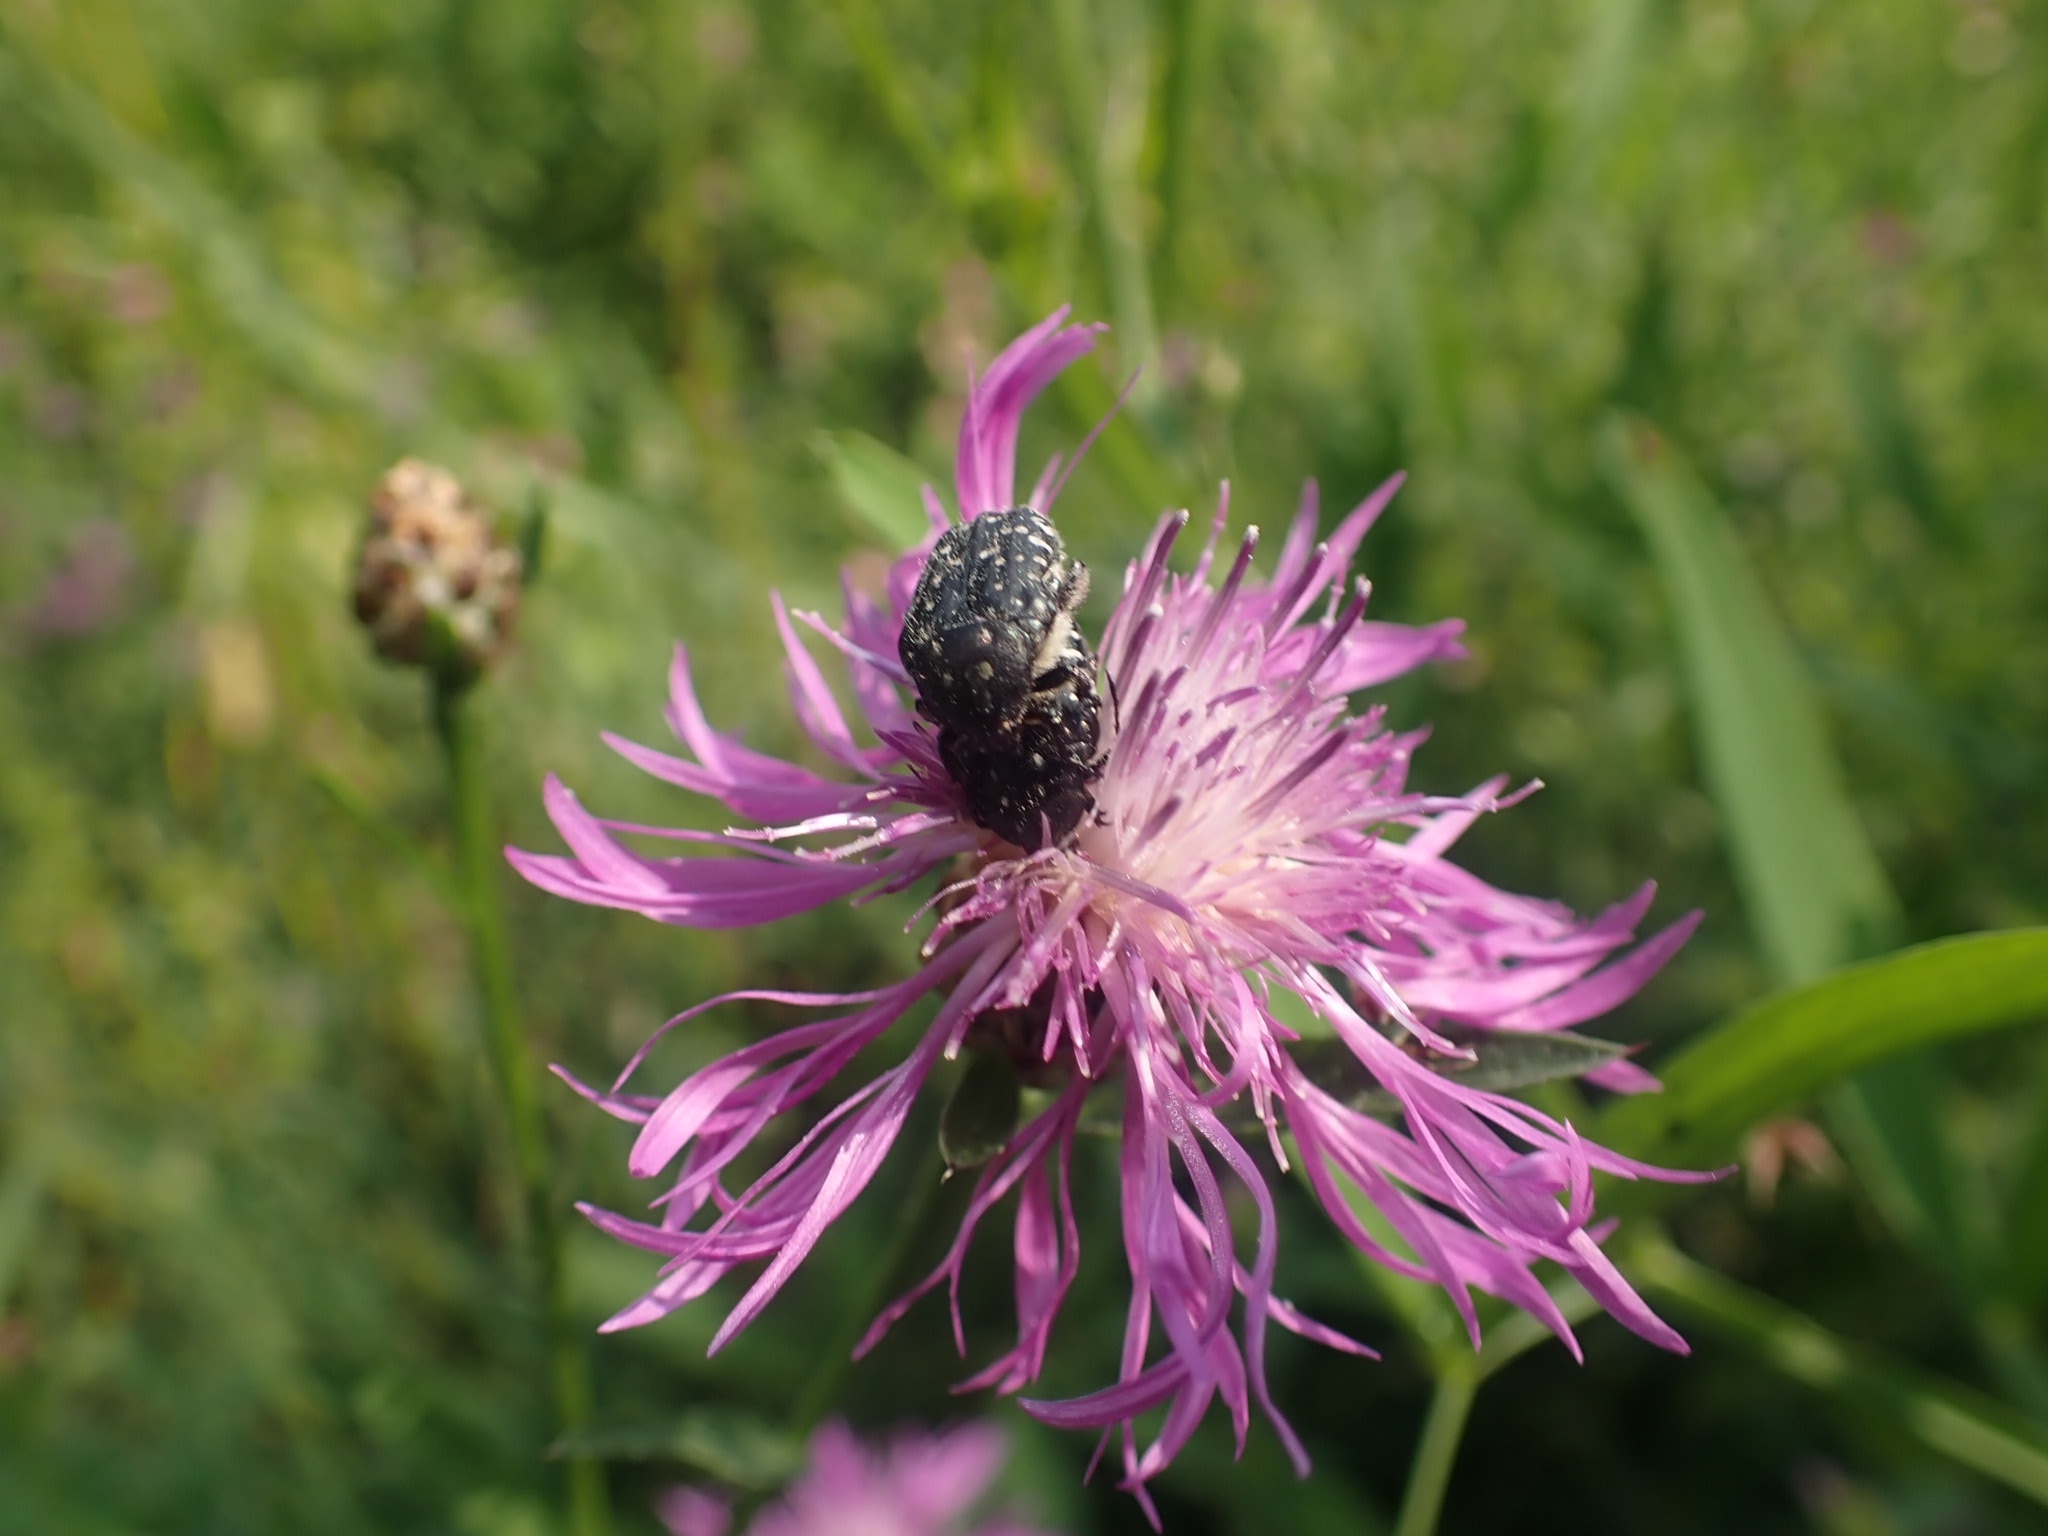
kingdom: Animalia
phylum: Arthropoda
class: Insecta
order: Coleoptera
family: Scarabaeidae
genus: Oxythyrea
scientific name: Oxythyrea funesta
